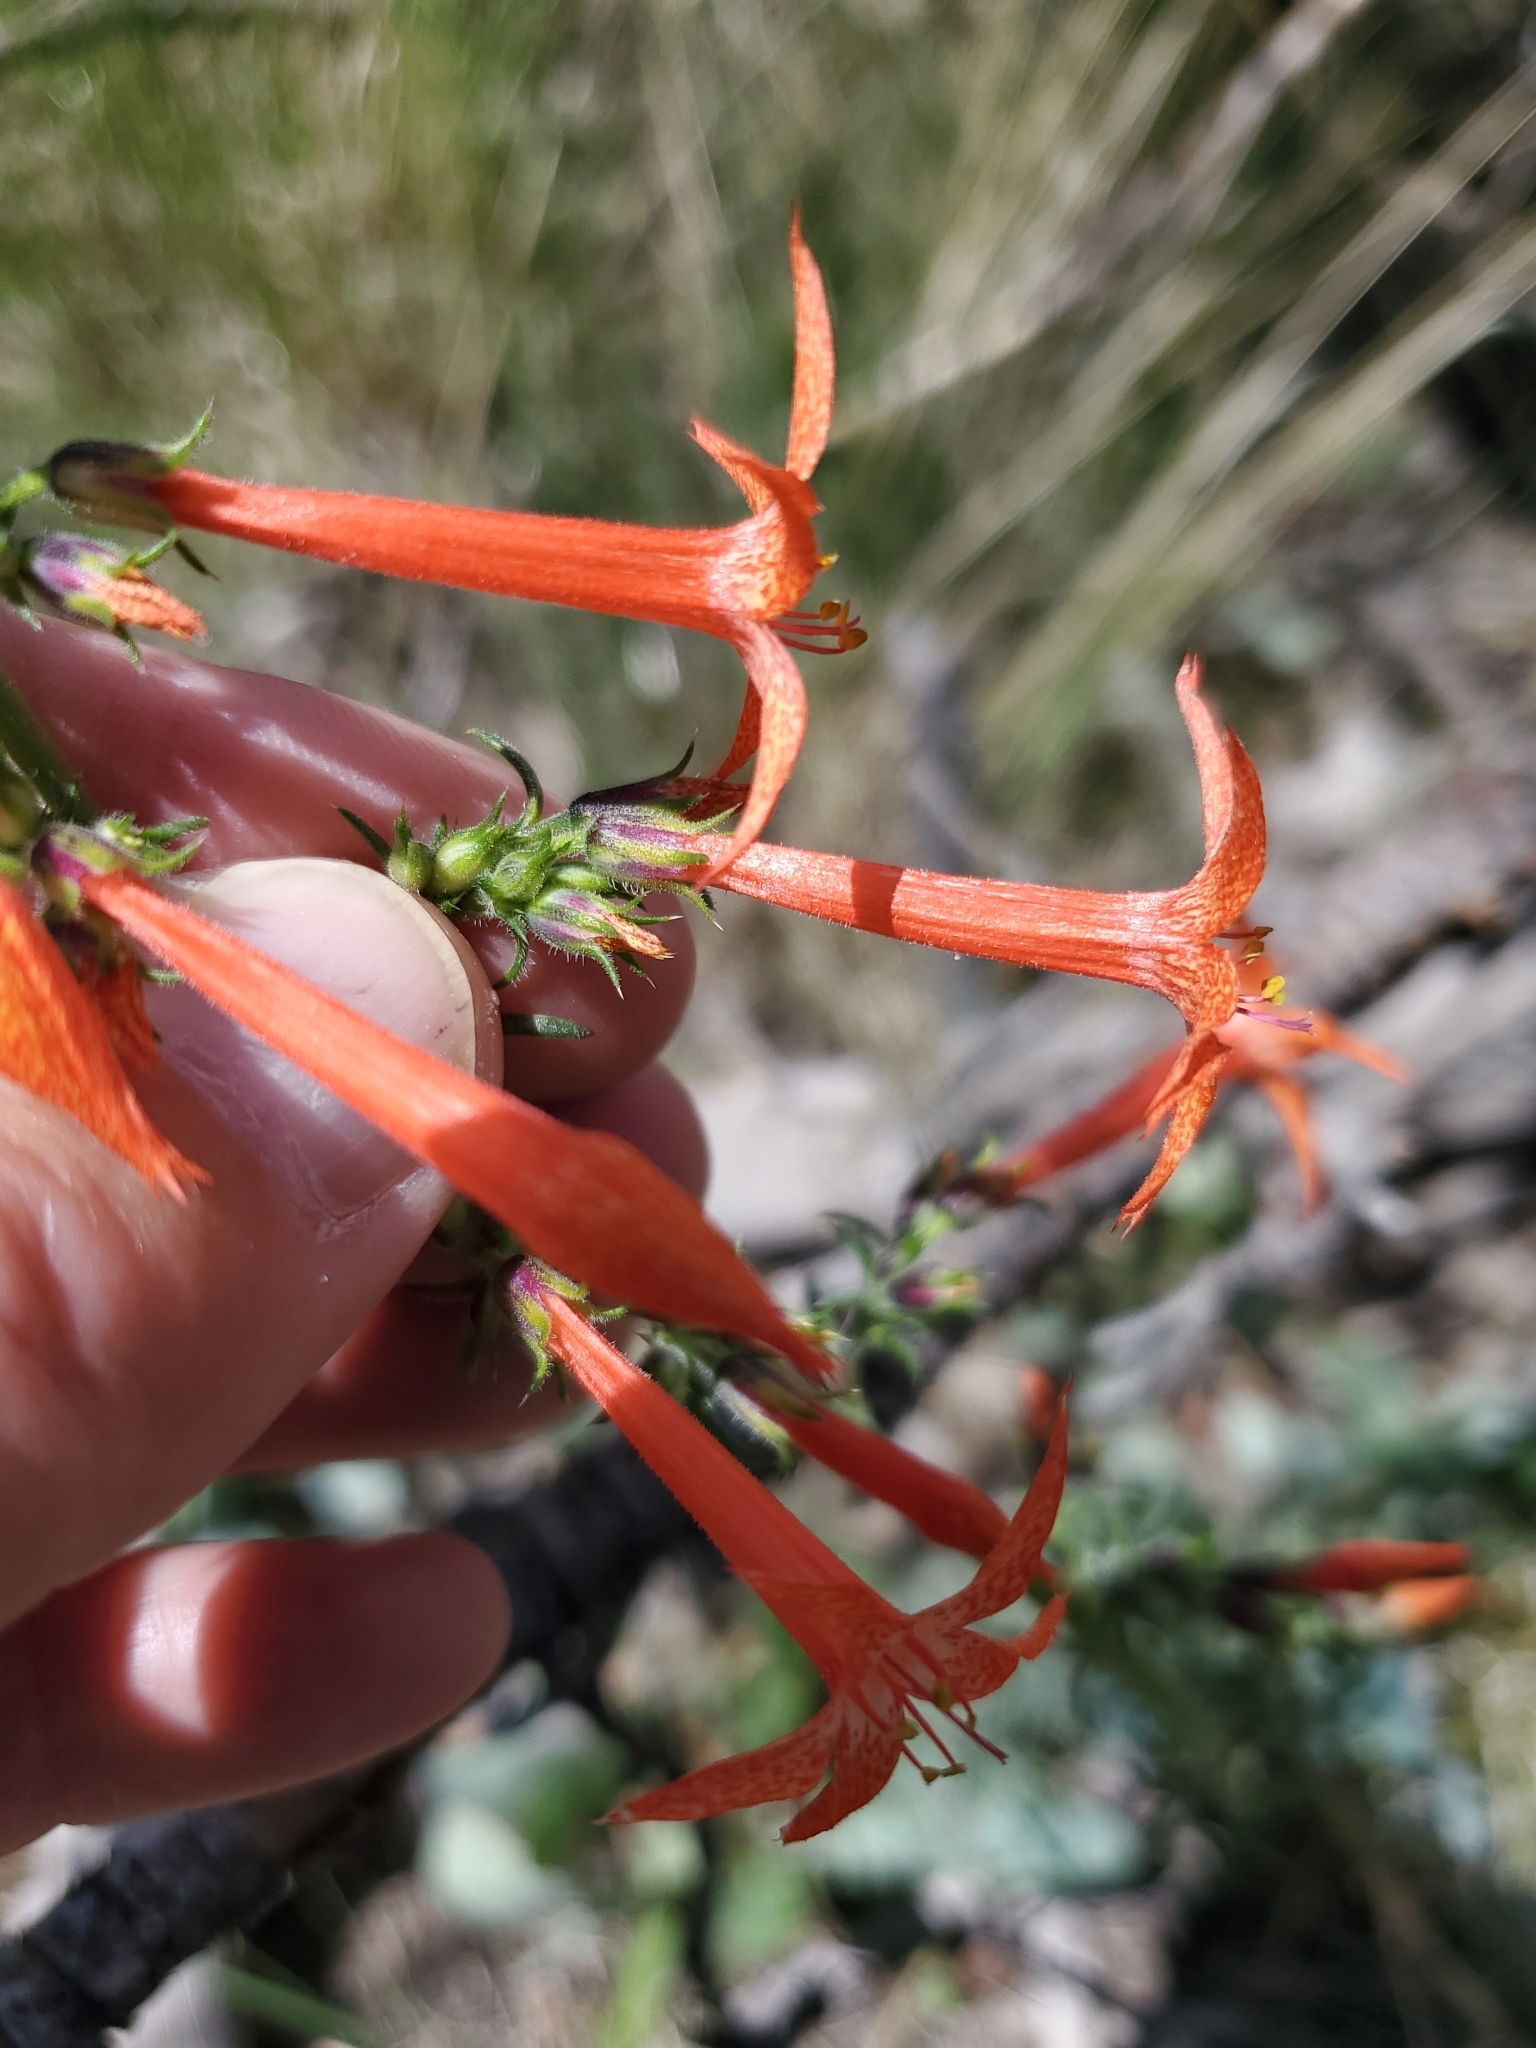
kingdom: Plantae
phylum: Tracheophyta
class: Magnoliopsida
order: Ericales
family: Polemoniaceae
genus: Ipomopsis
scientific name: Ipomopsis aggregata
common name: Scarlet gilia
